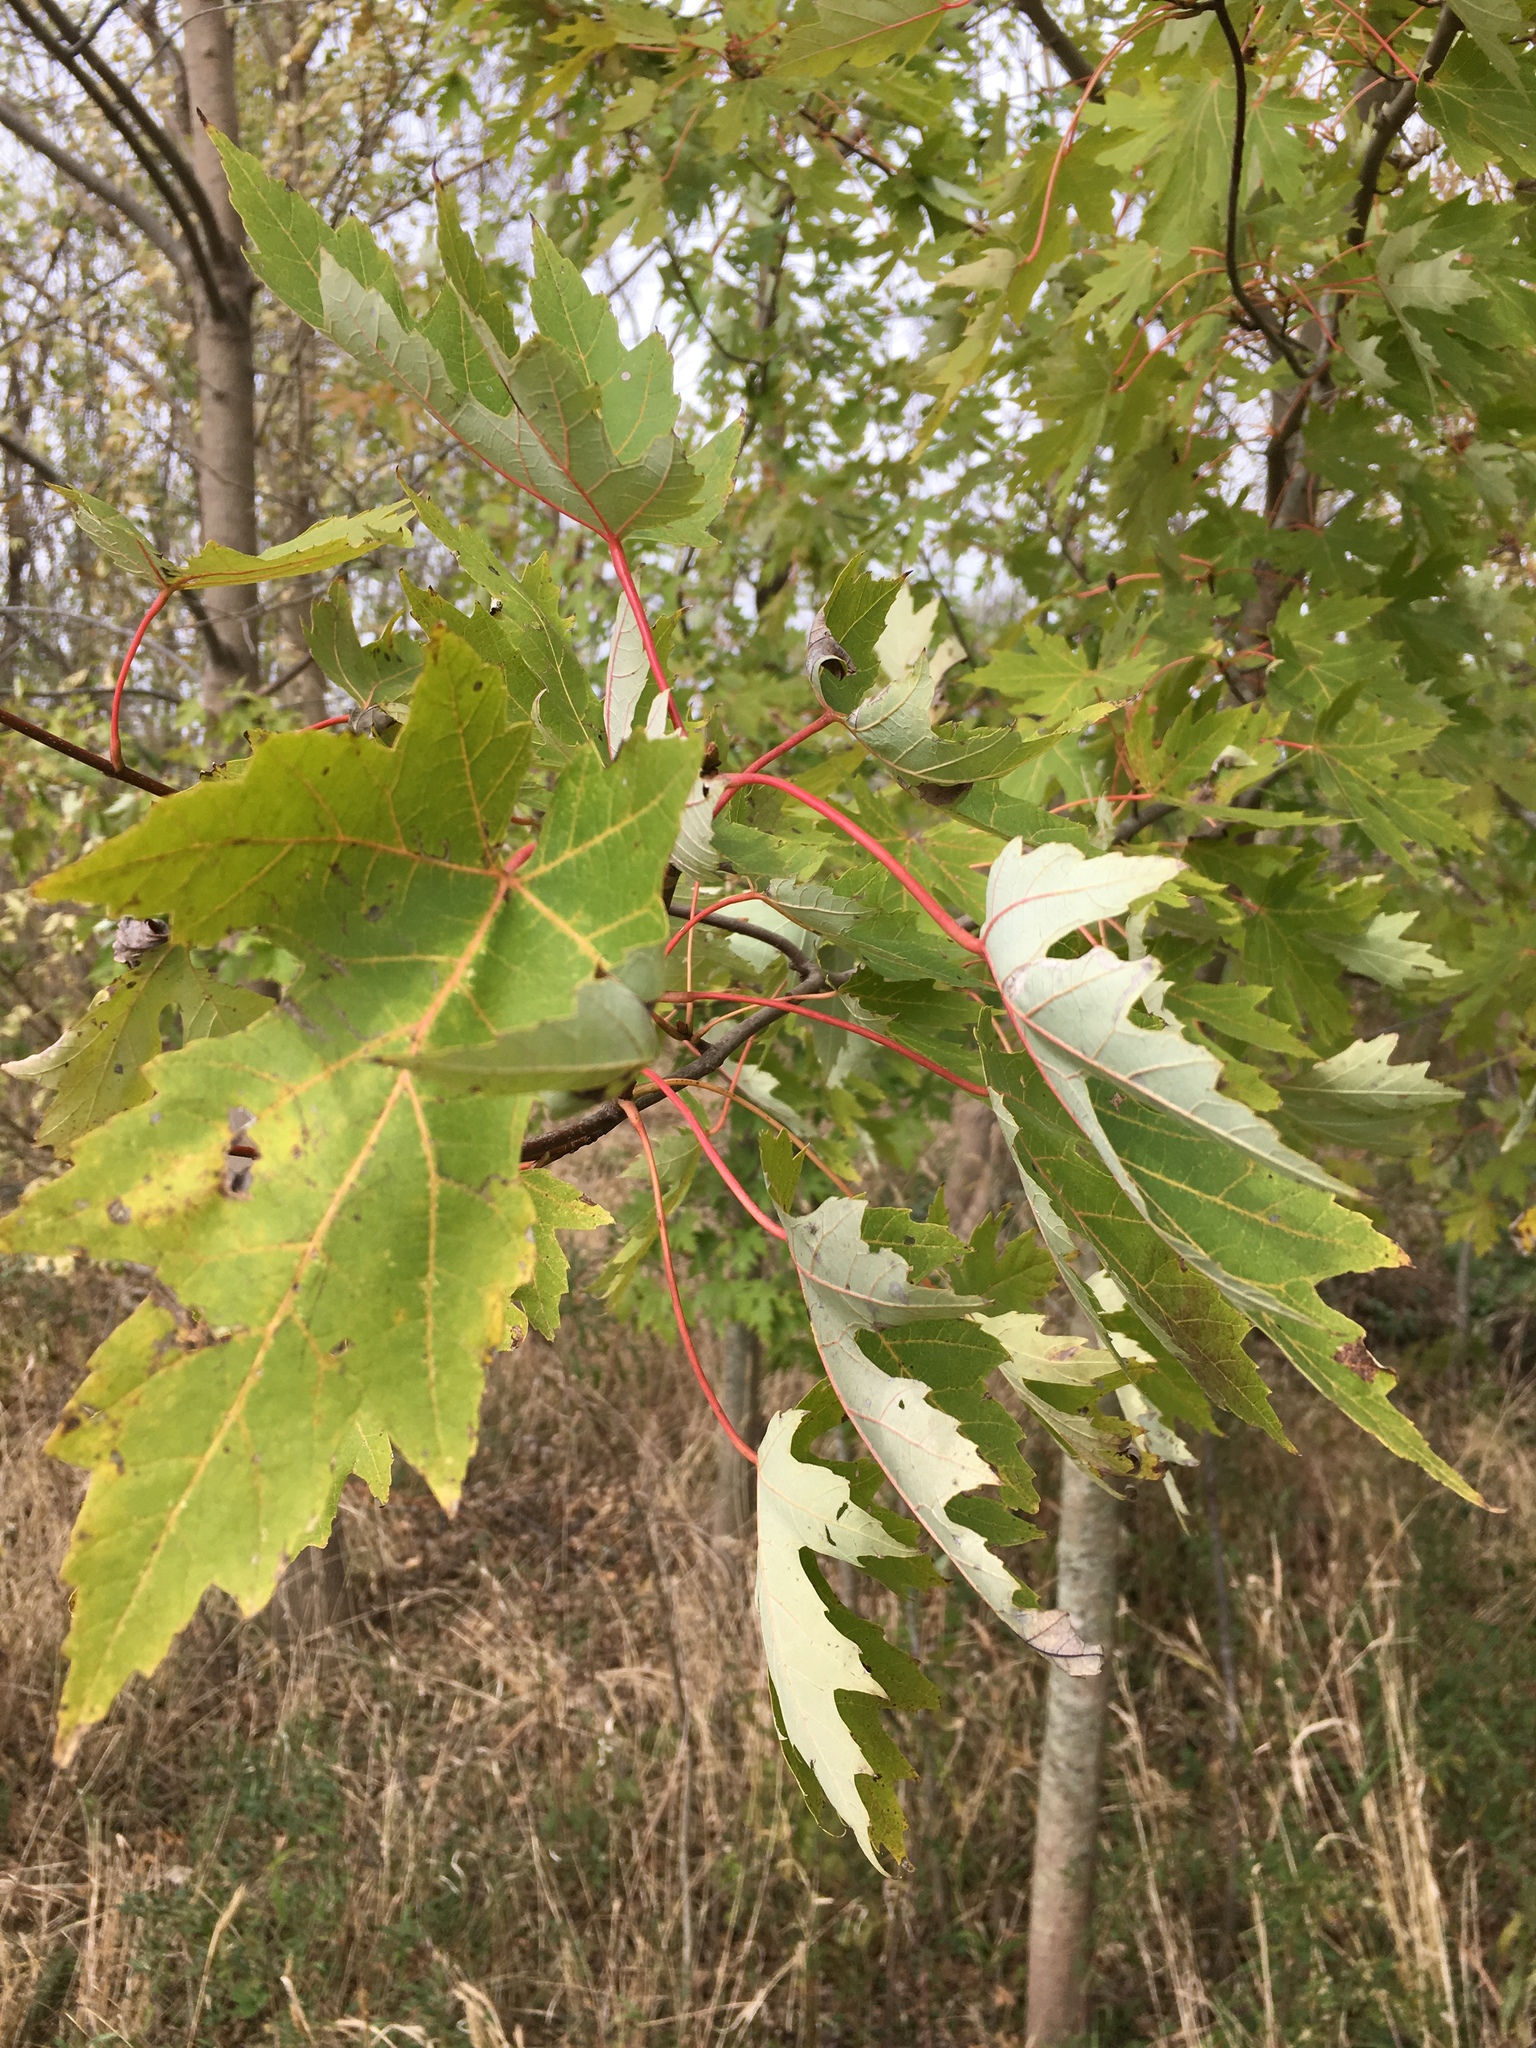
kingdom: Plantae
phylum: Tracheophyta
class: Magnoliopsida
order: Sapindales
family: Sapindaceae
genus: Acer
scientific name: Acer saccharinum
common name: Silver maple
